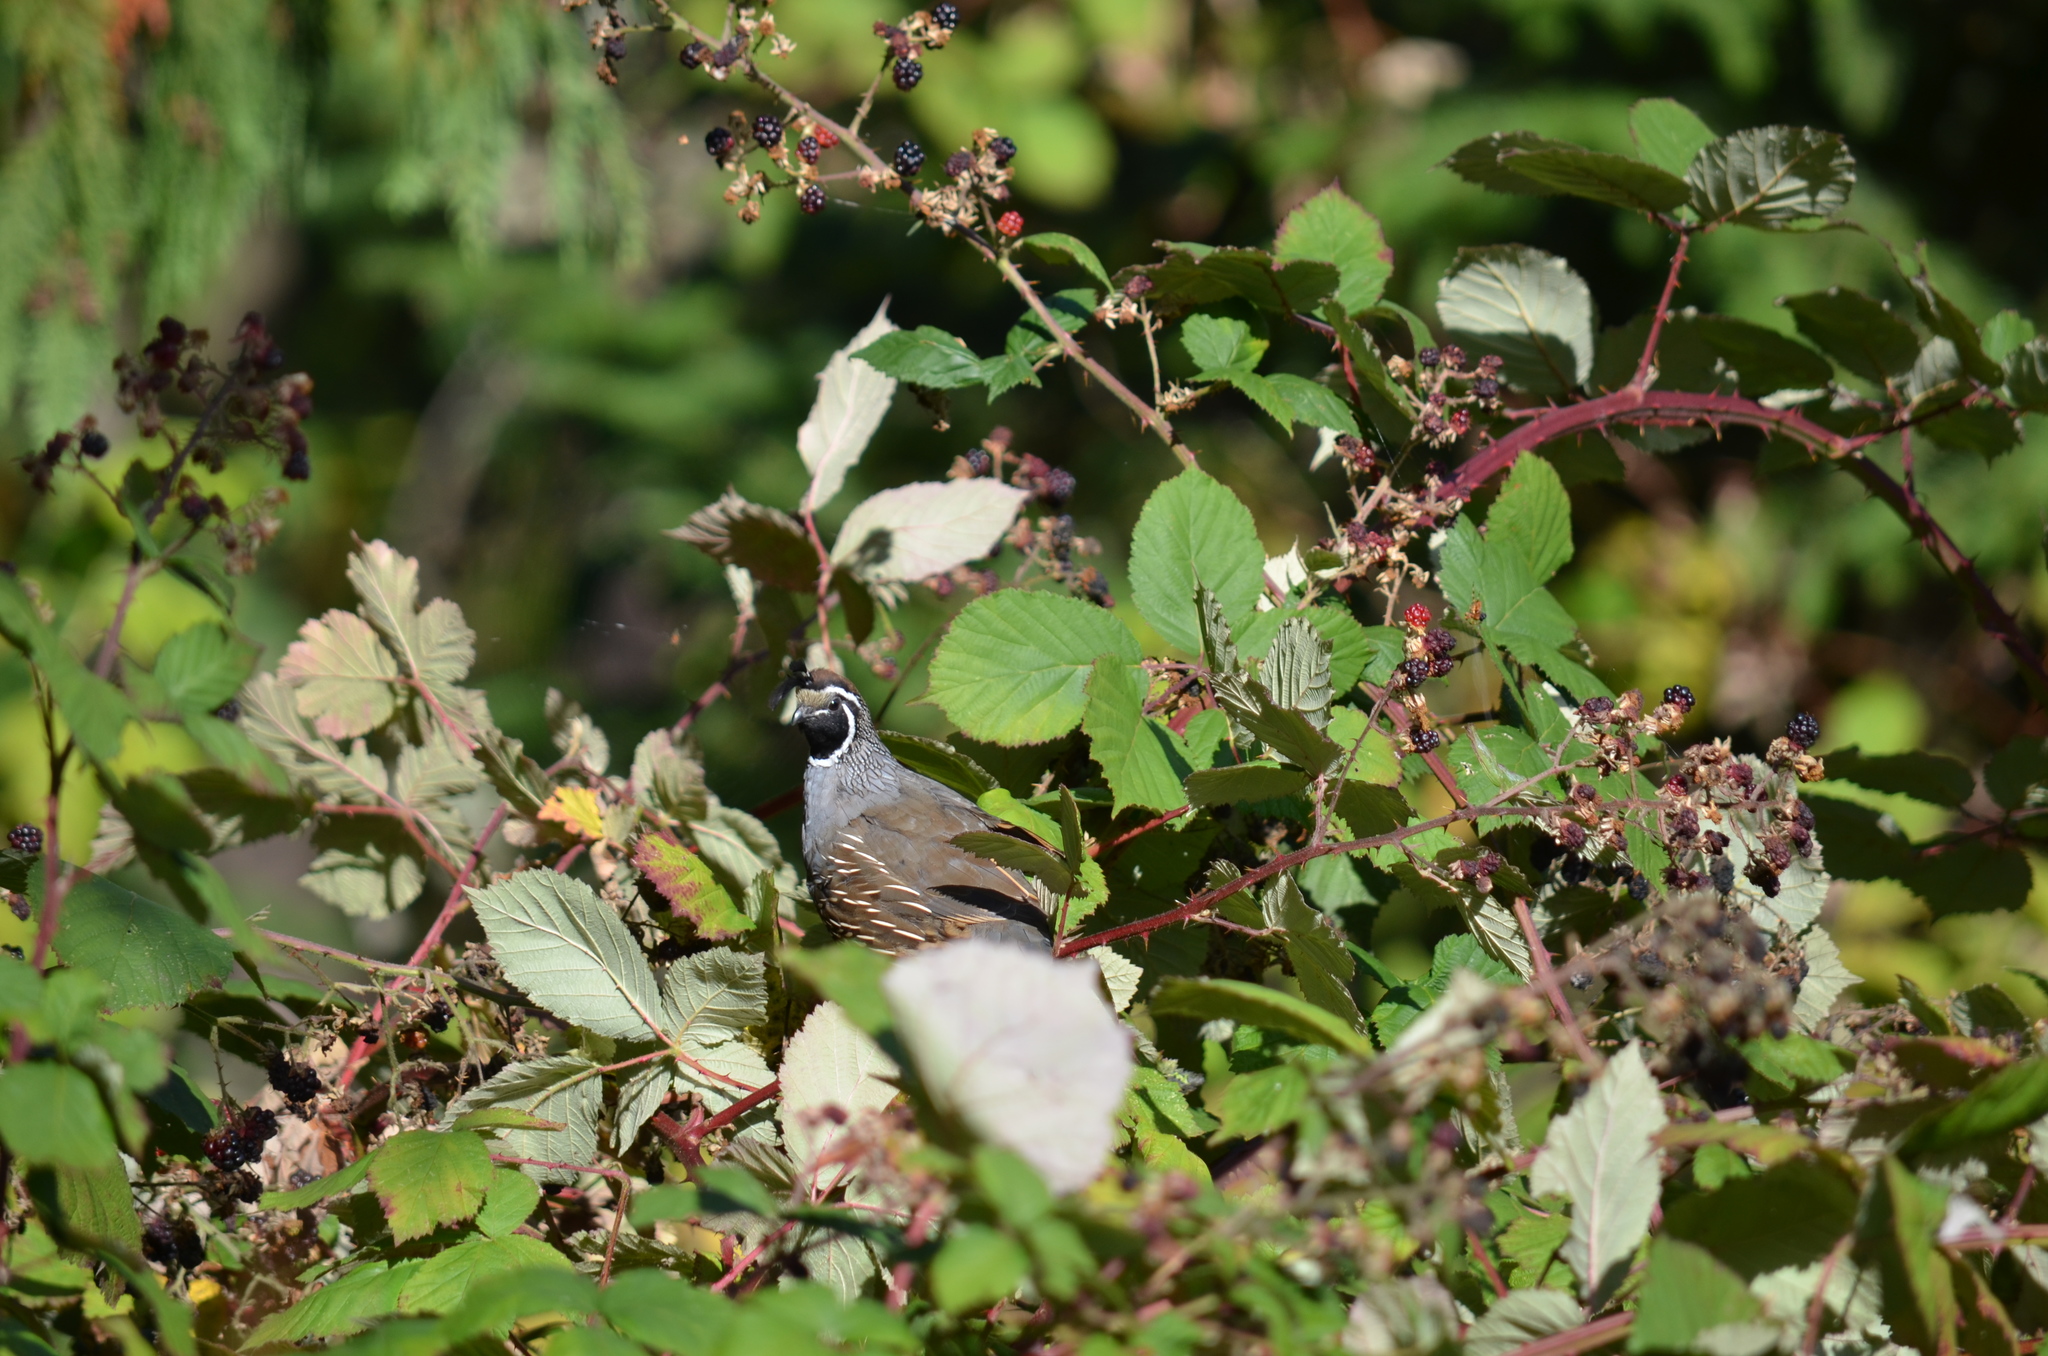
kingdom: Animalia
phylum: Chordata
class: Aves
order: Galliformes
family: Odontophoridae
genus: Callipepla
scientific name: Callipepla californica
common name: California quail
